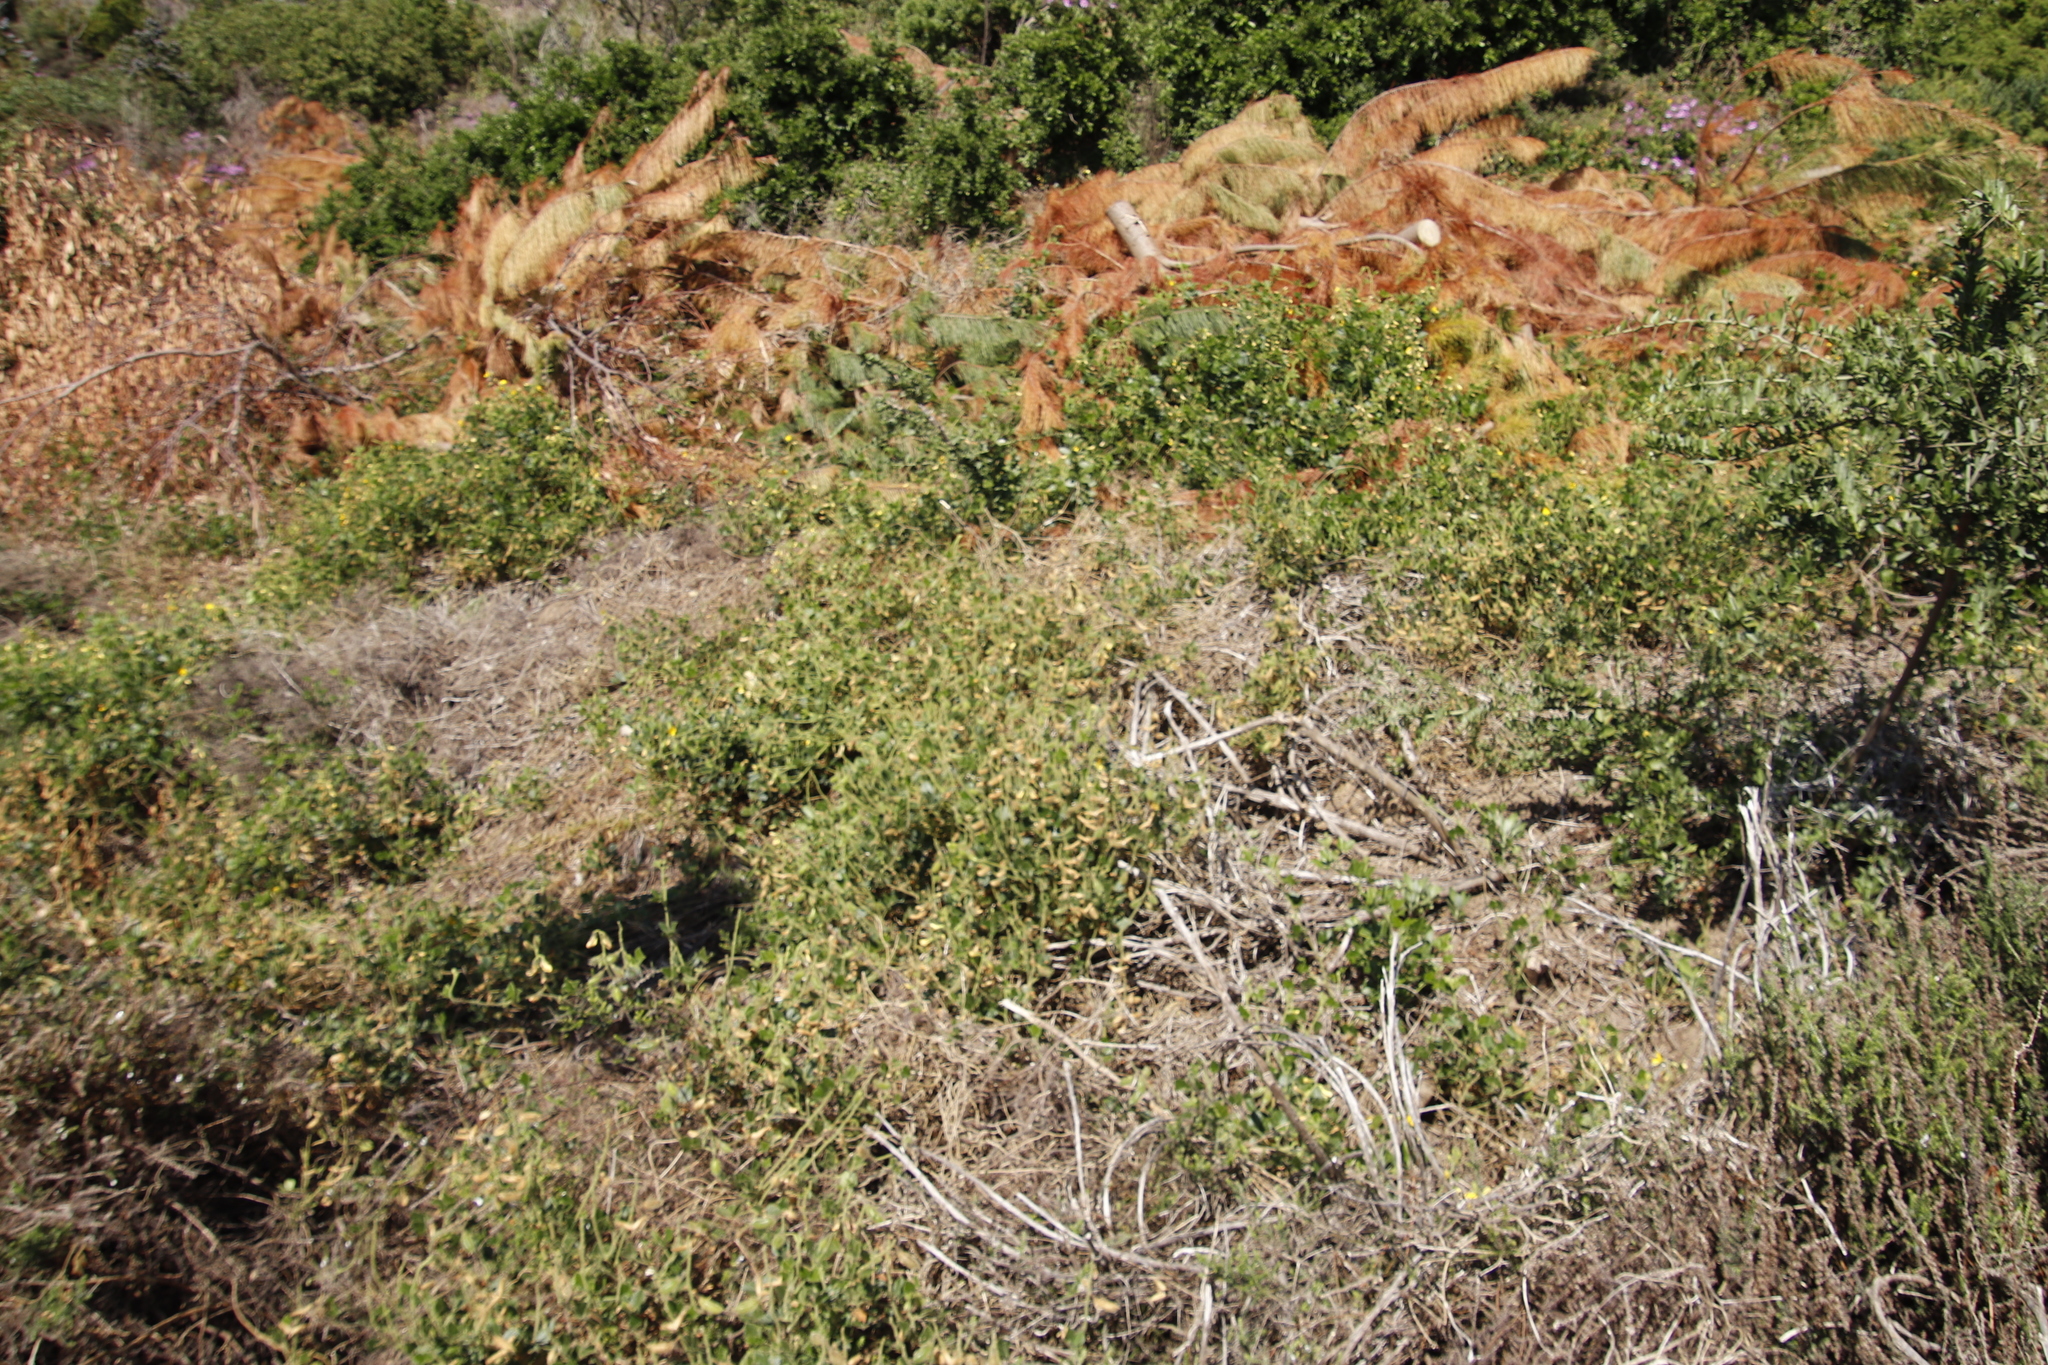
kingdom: Plantae
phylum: Tracheophyta
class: Magnoliopsida
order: Fabales
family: Fabaceae
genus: Bolusafra
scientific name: Bolusafra bituminosa
